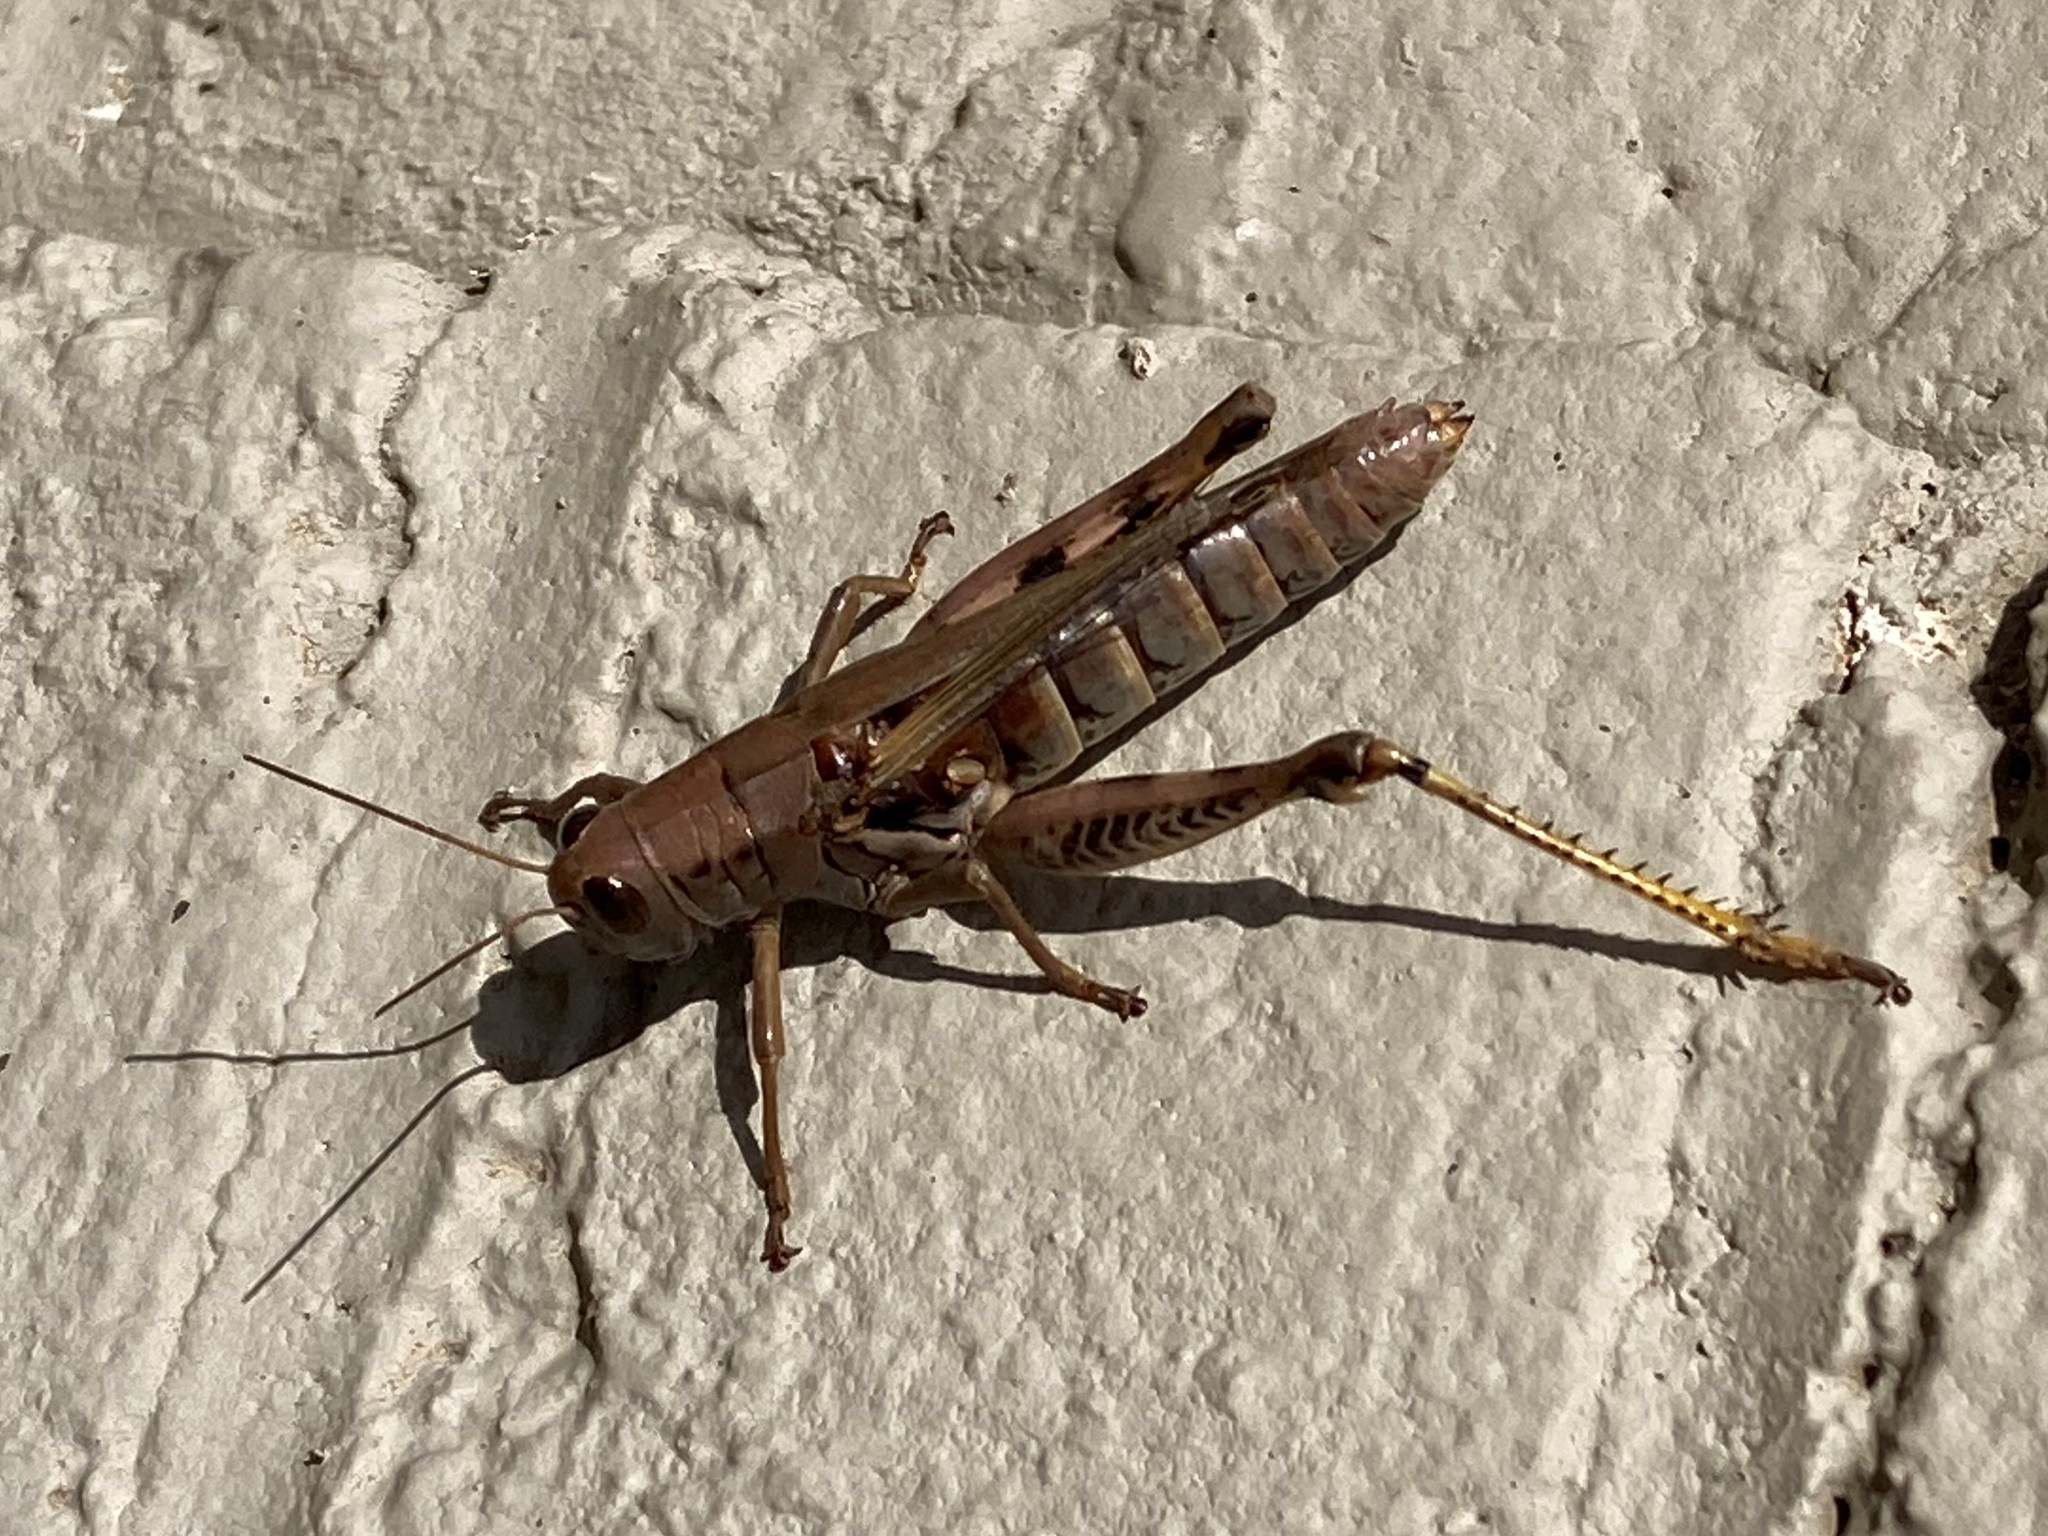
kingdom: Animalia
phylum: Arthropoda
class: Insecta
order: Orthoptera
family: Acrididae
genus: Melanoplus
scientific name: Melanoplus differentialis
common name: Differential grasshopper
